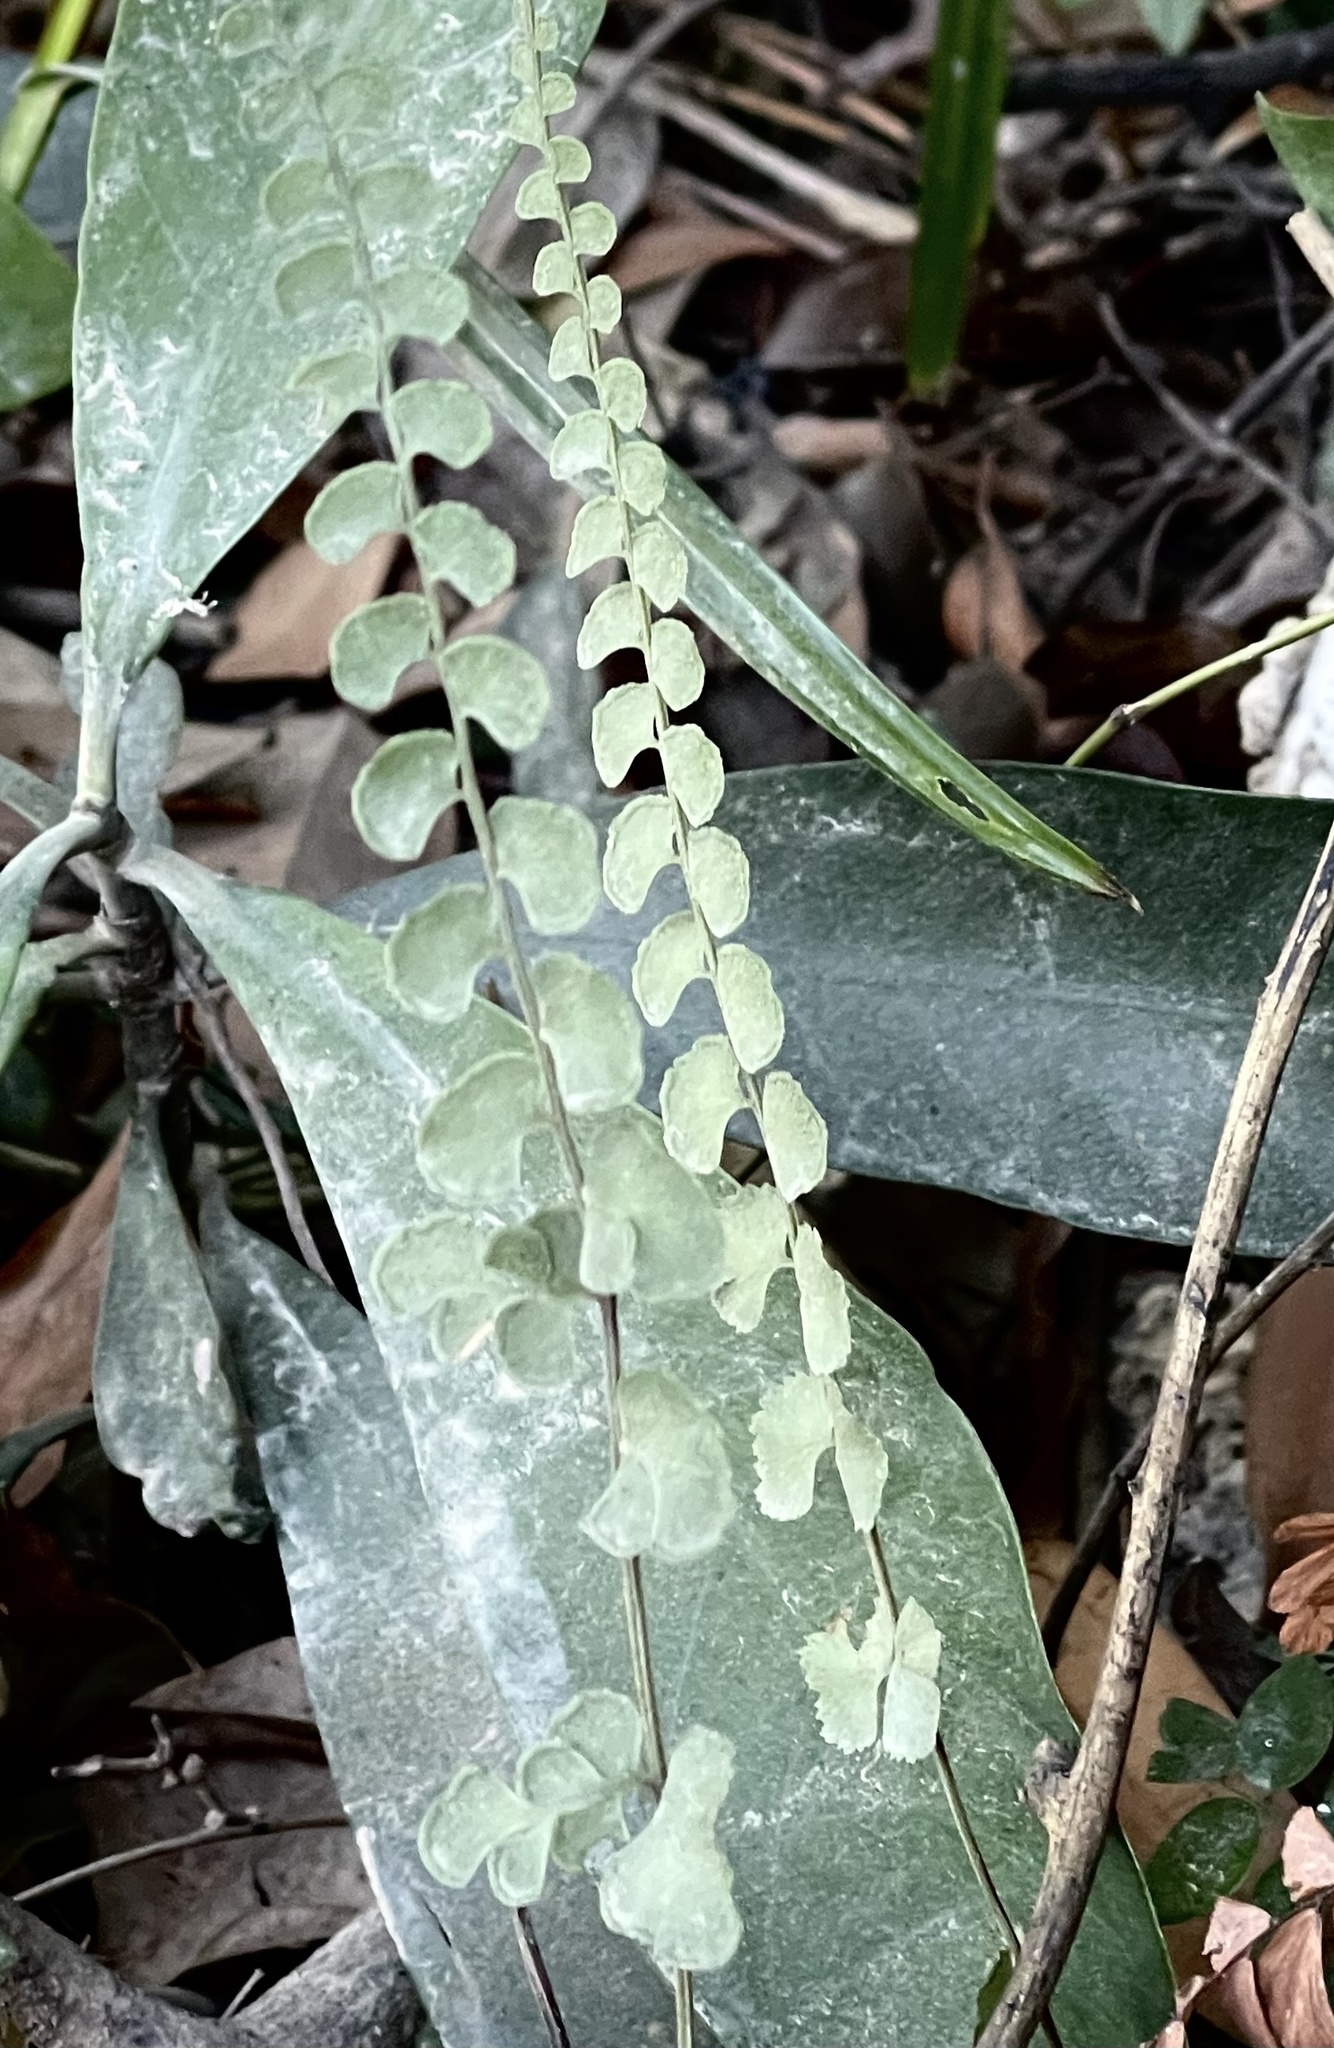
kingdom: Plantae
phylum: Tracheophyta
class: Polypodiopsida
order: Polypodiales
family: Lindsaeaceae
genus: Lindsaea
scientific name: Lindsaea orbiculata
